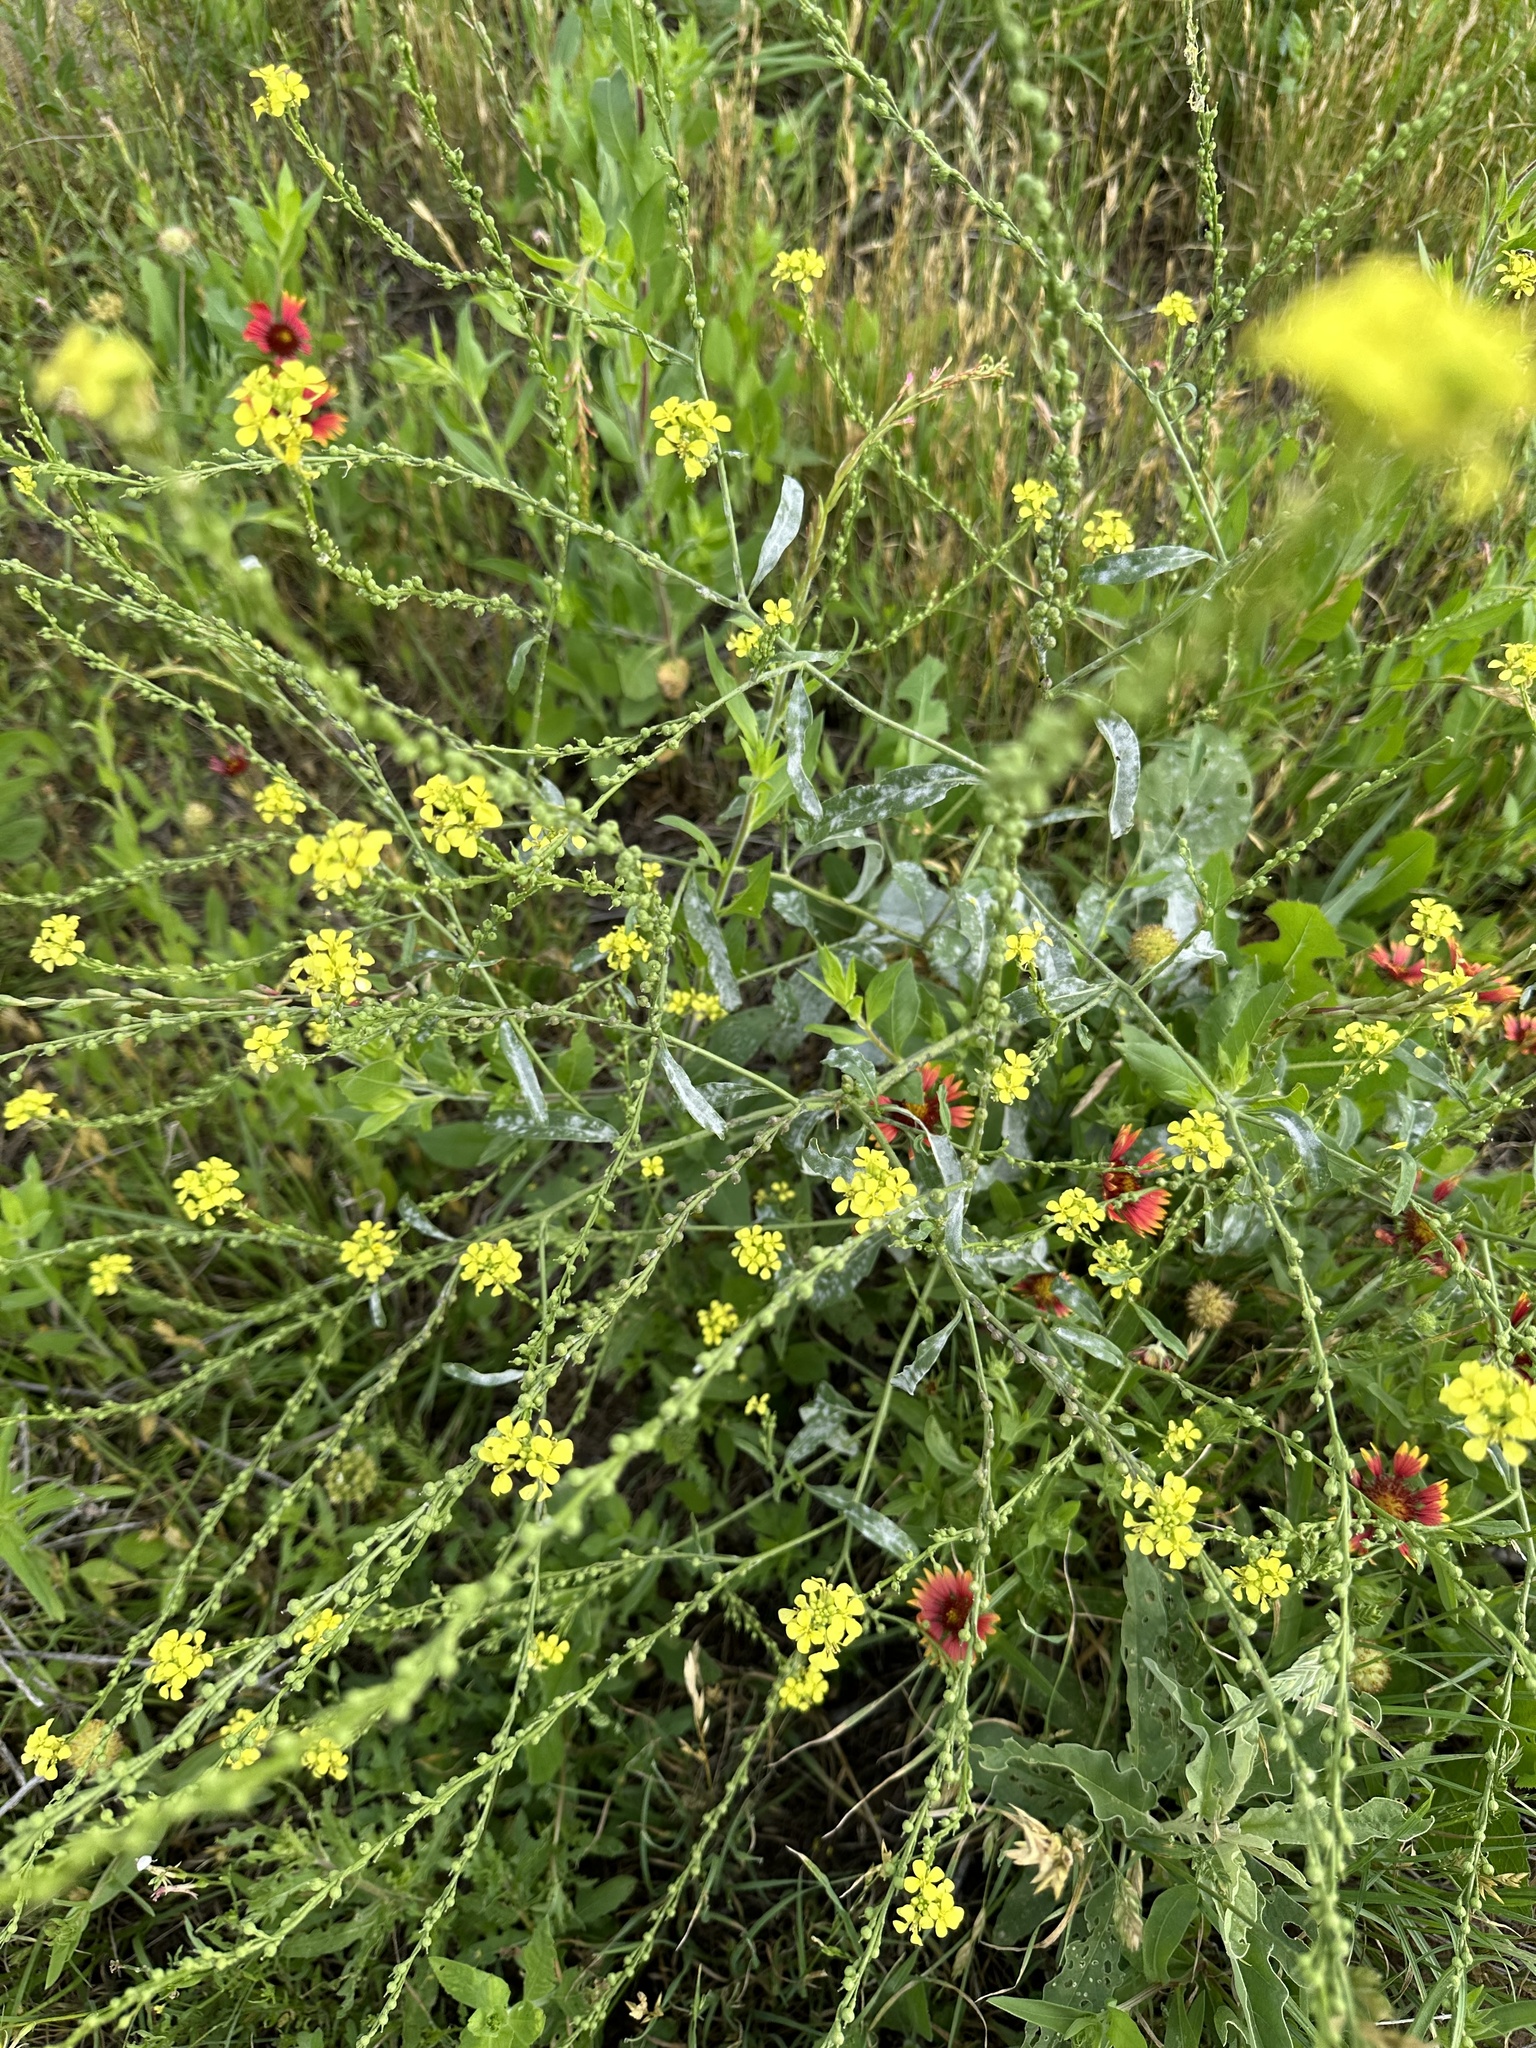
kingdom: Plantae
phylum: Tracheophyta
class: Magnoliopsida
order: Brassicales
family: Brassicaceae
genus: Rapistrum
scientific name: Rapistrum rugosum
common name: Annual bastardcabbage
